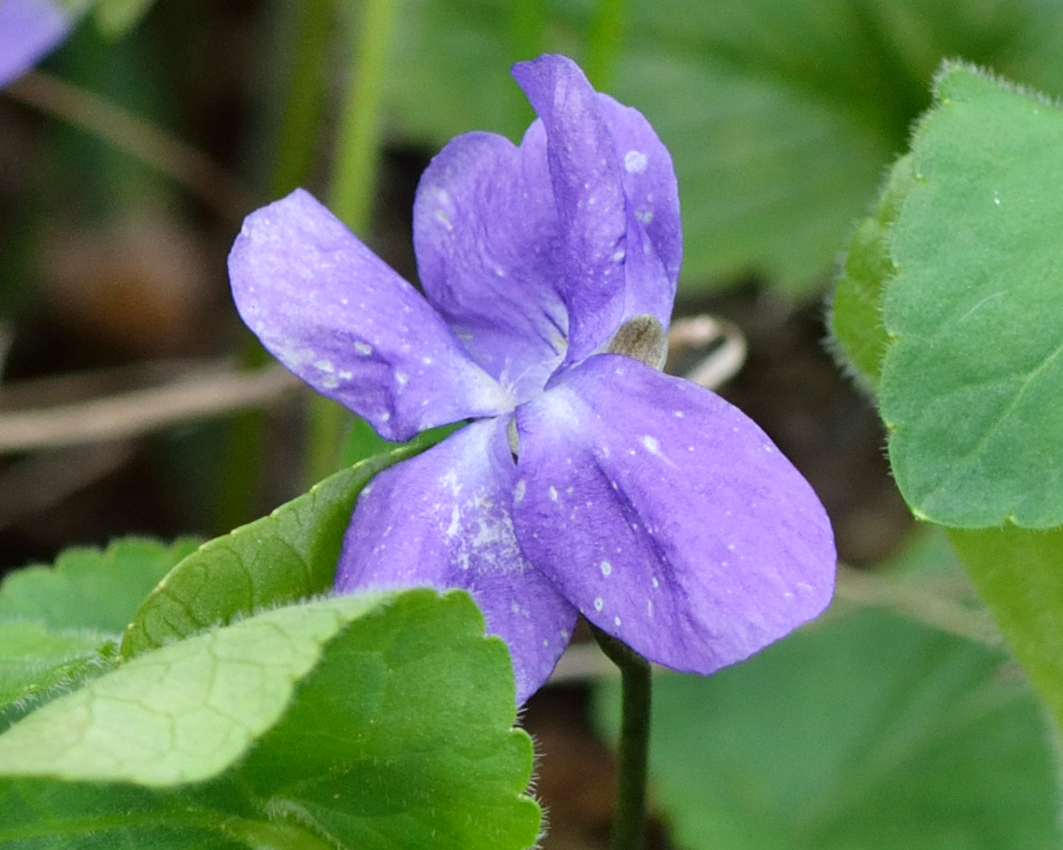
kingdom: Plantae
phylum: Tracheophyta
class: Magnoliopsida
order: Malpighiales
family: Violaceae
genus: Viola
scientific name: Viola hirta
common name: Hairy violet
